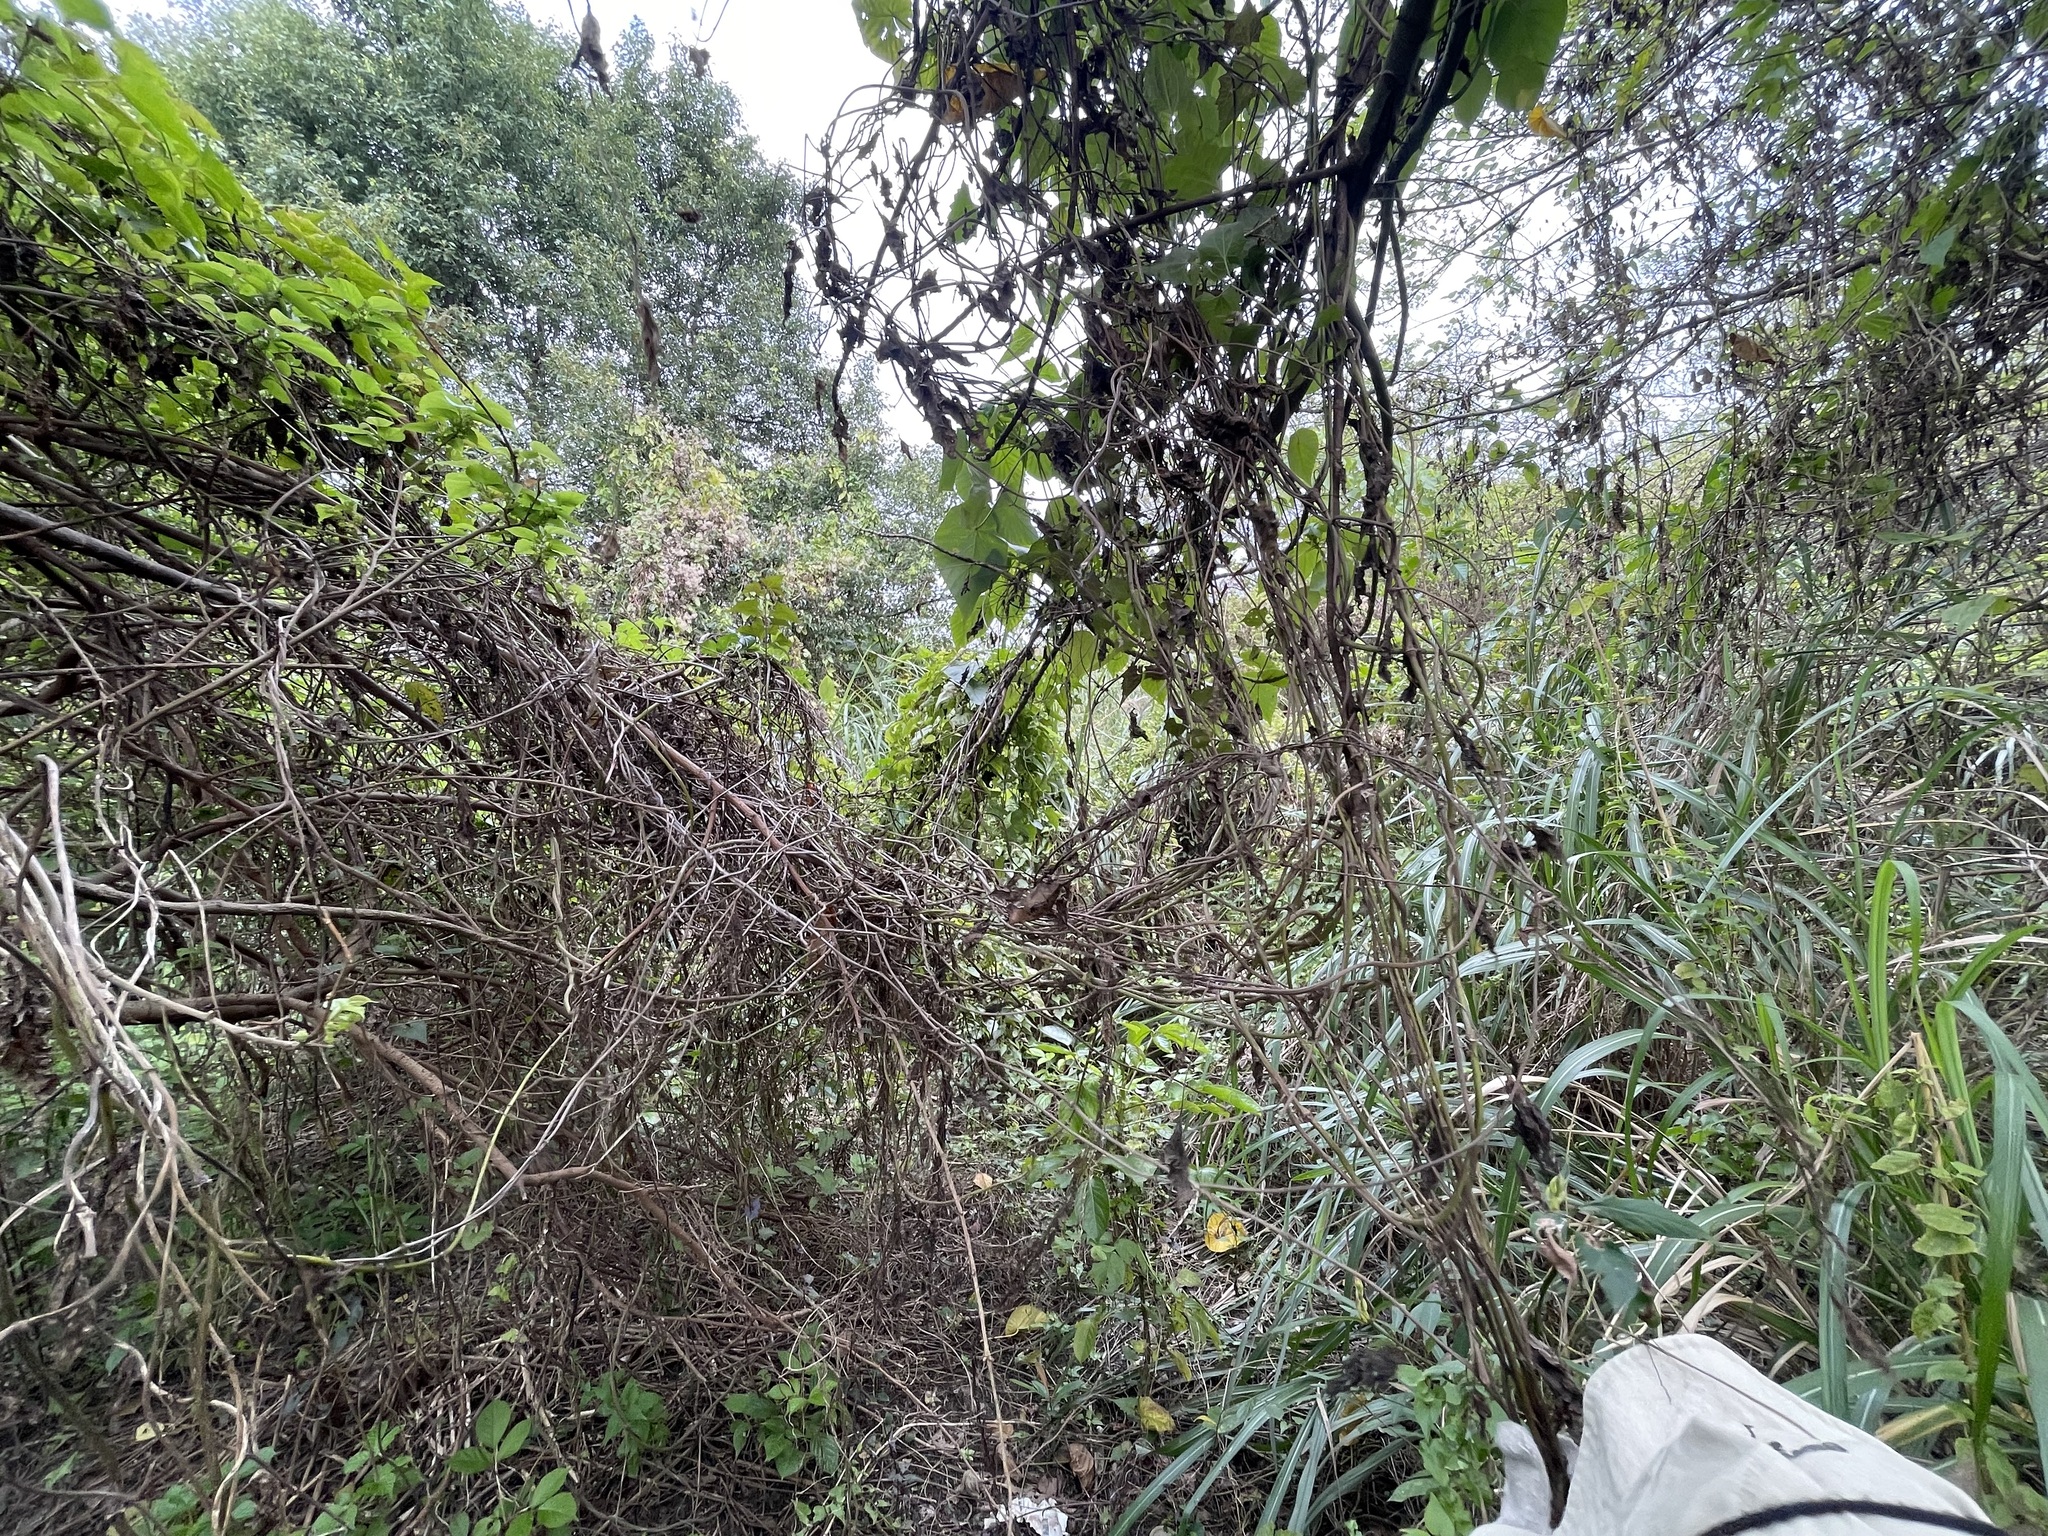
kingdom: Plantae
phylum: Tracheophyta
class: Magnoliopsida
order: Asterales
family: Asteraceae
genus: Mikania
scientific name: Mikania micrantha
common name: Mile-a-minute
